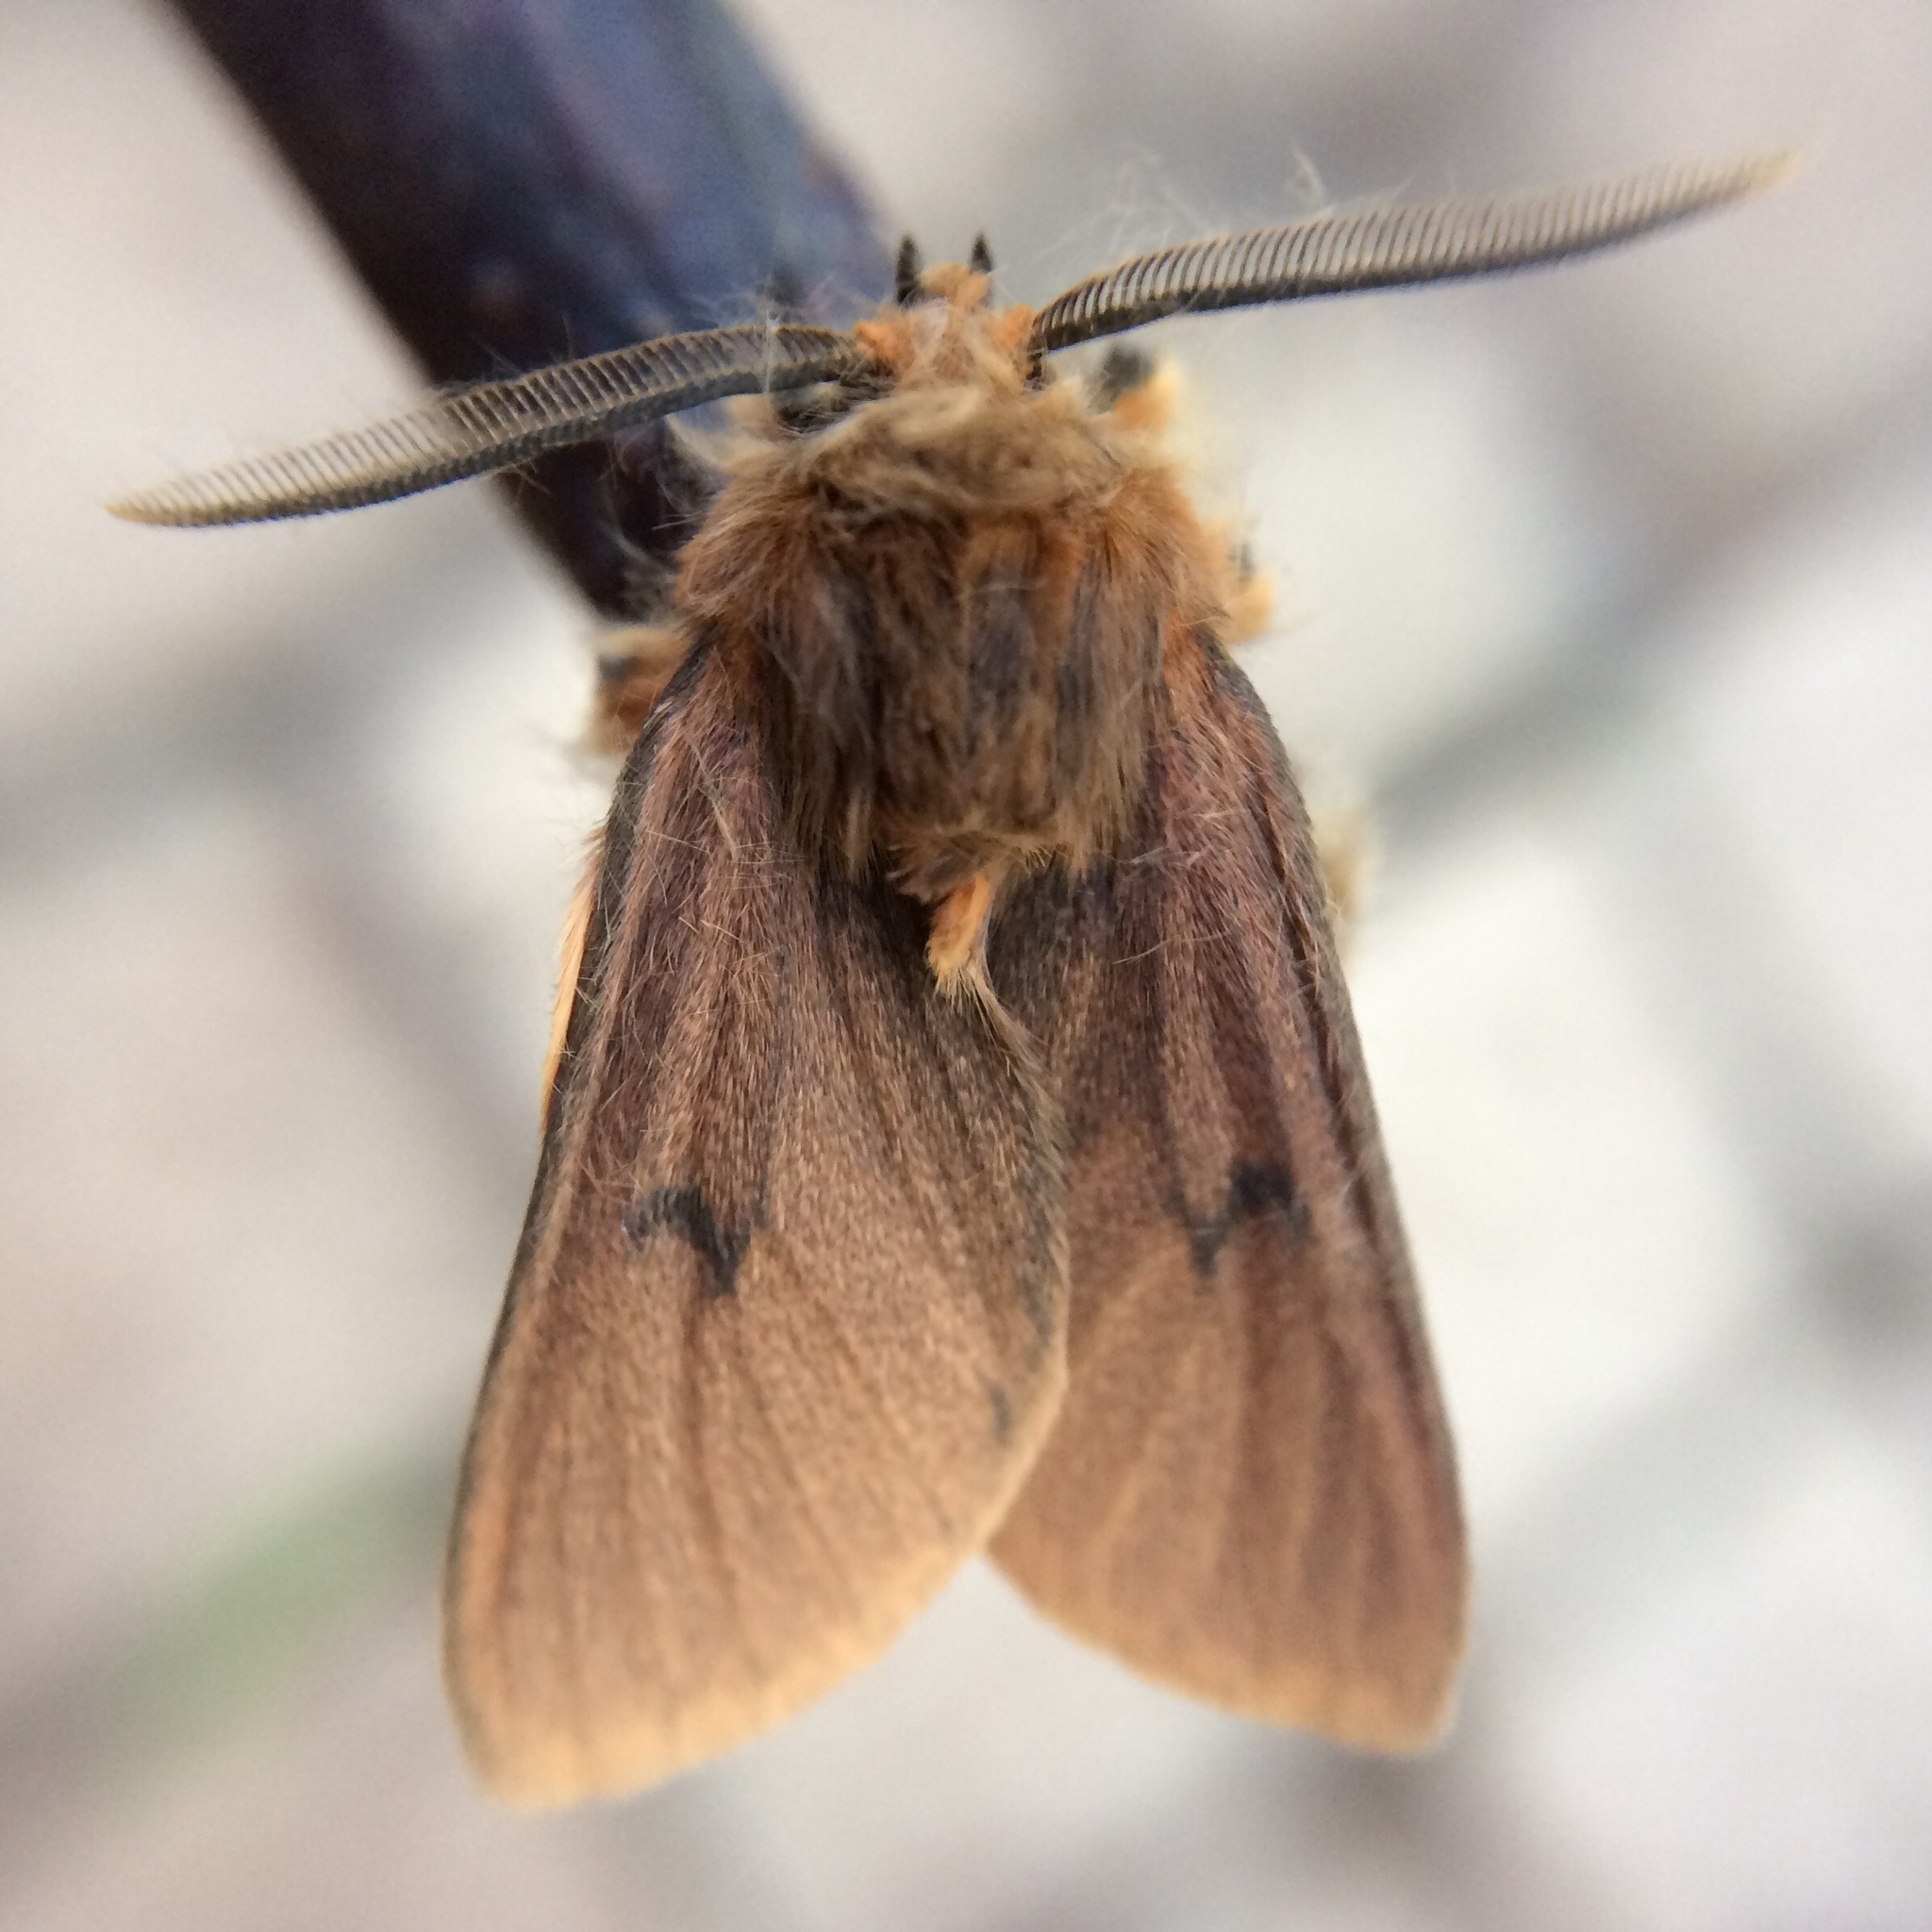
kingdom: Animalia
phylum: Arthropoda
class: Insecta
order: Lepidoptera
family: Erebidae
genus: Automolis
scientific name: Automolis jansei
